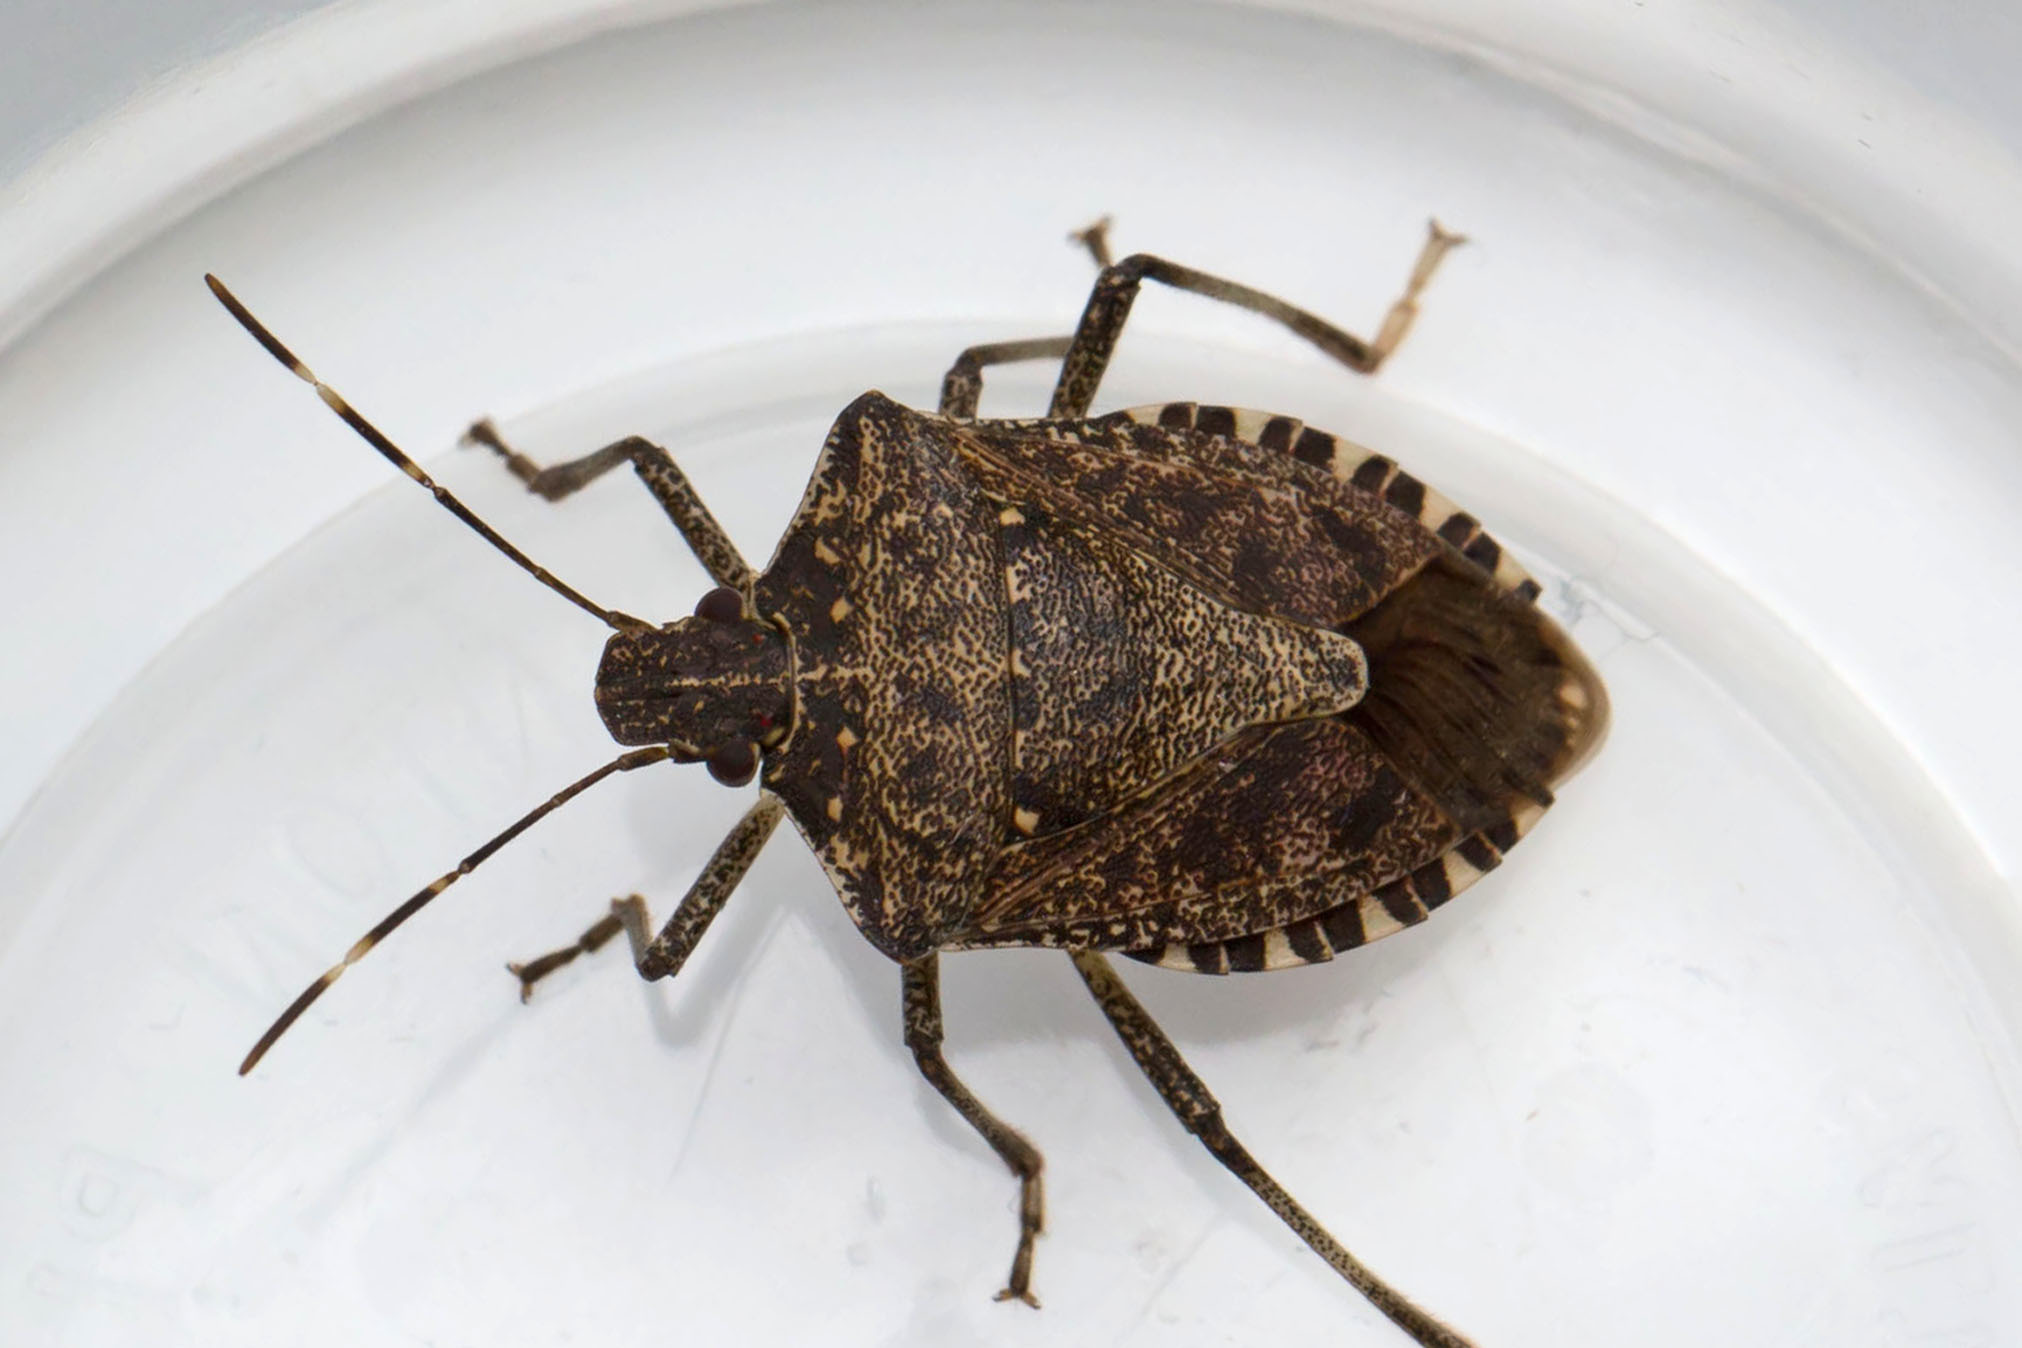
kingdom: Animalia
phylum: Arthropoda
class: Insecta
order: Hemiptera
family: Pentatomidae
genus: Halyomorpha
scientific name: Halyomorpha halys
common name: Brown marmorated stink bug
